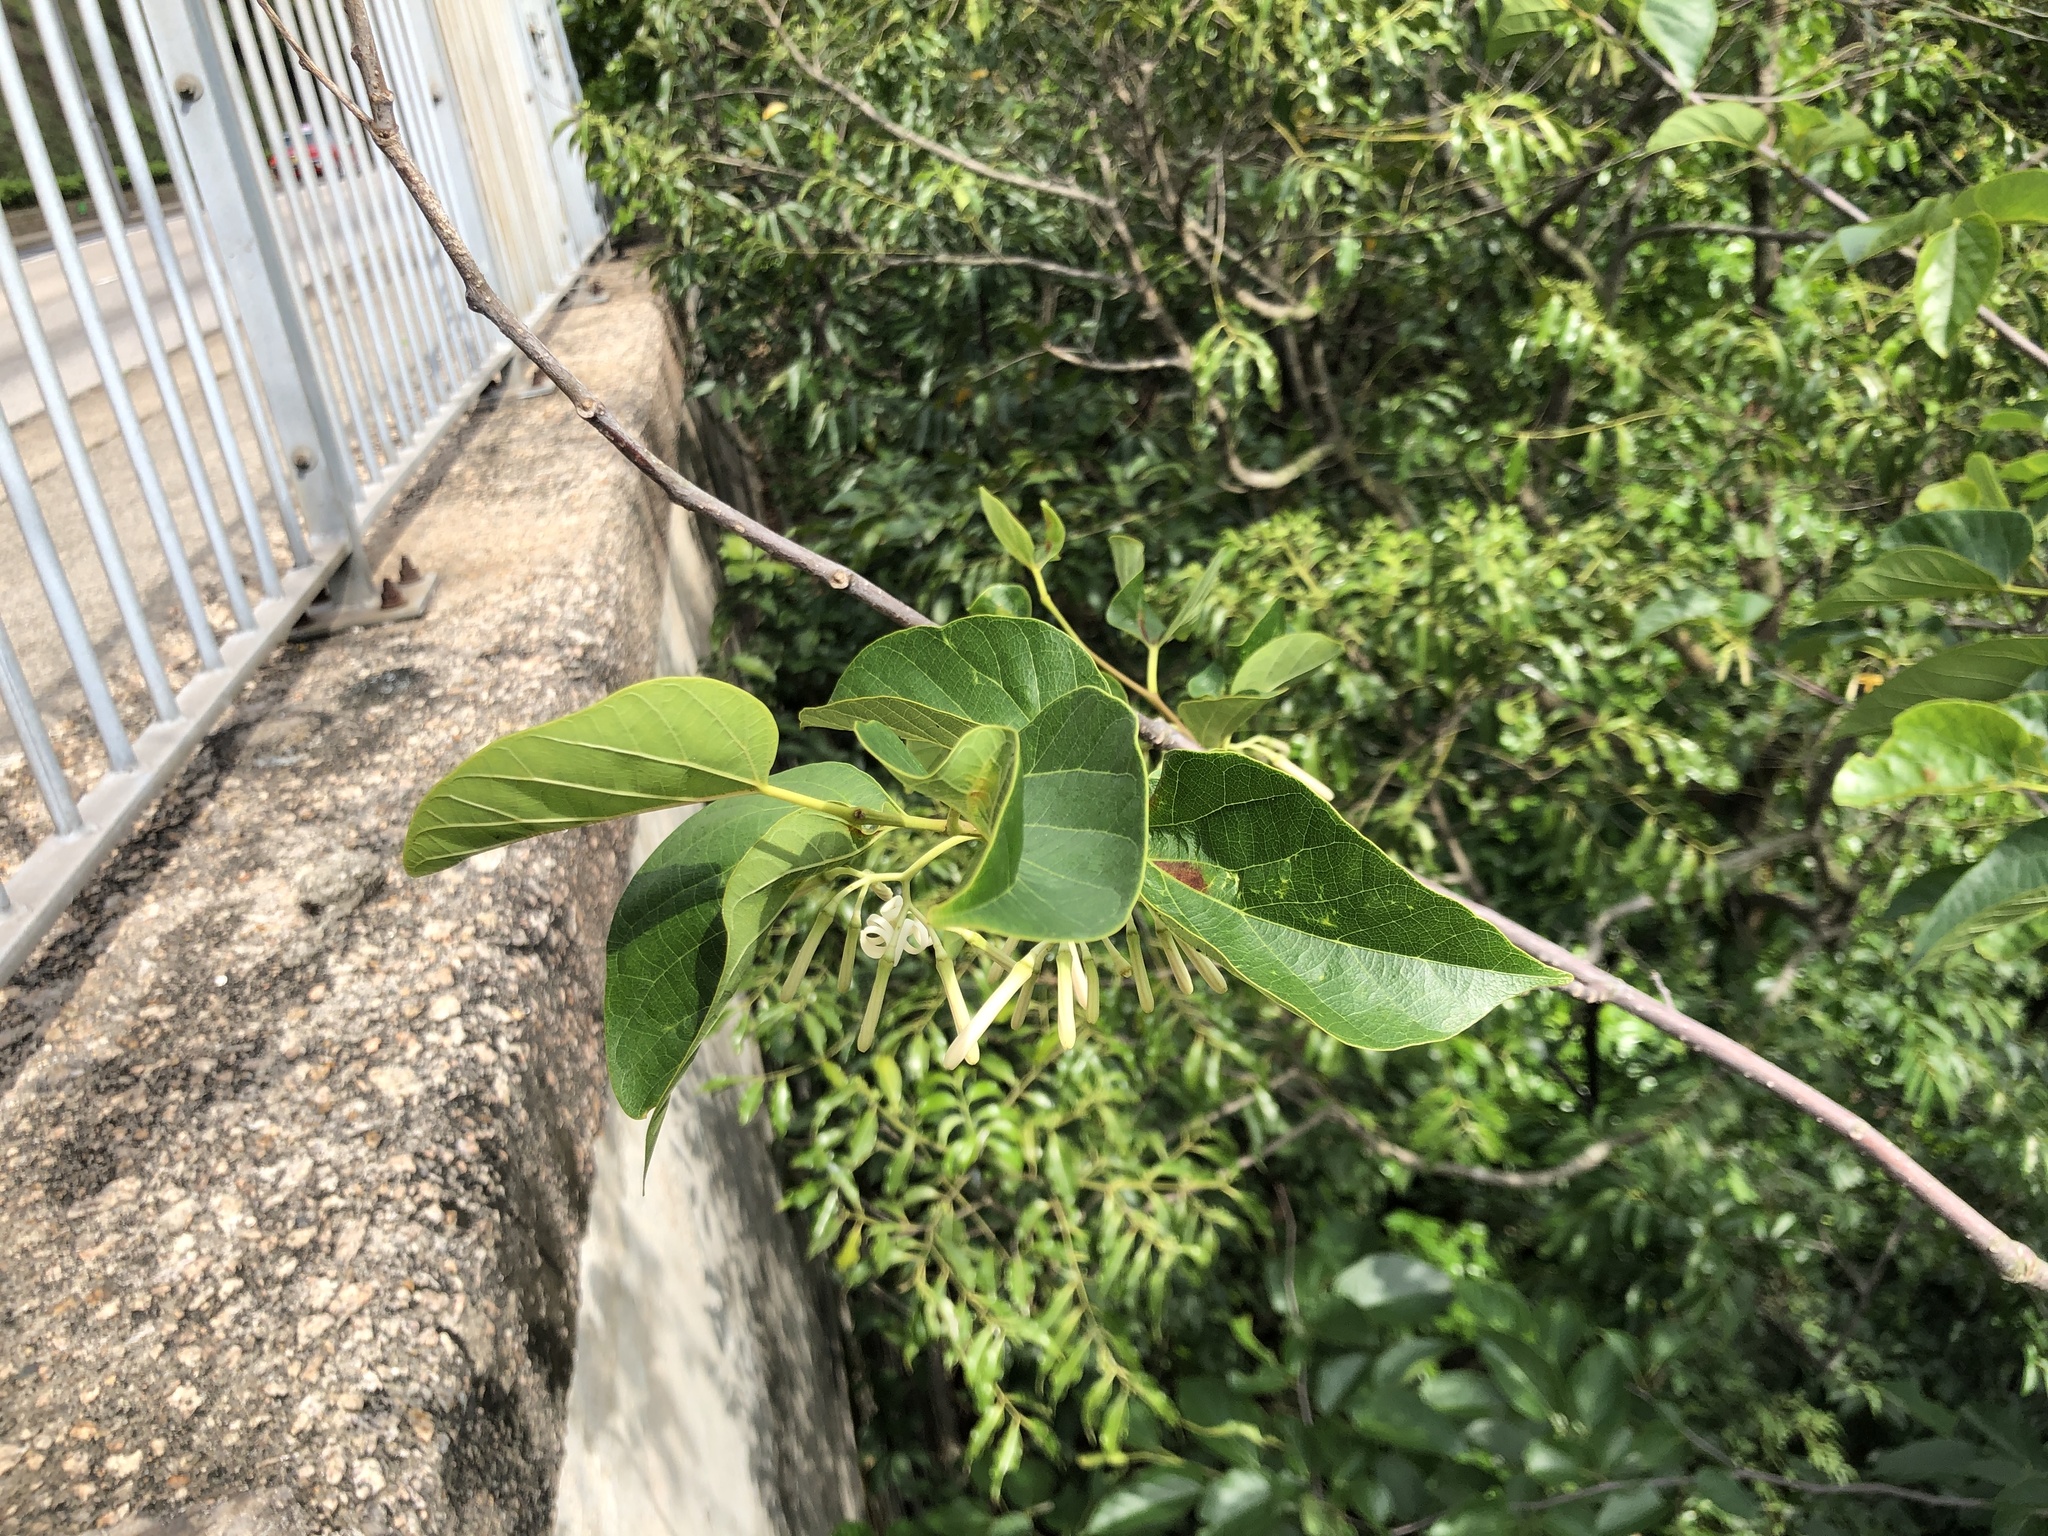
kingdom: Plantae
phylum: Tracheophyta
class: Magnoliopsida
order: Cornales
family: Cornaceae
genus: Alangium
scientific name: Alangium chinense
